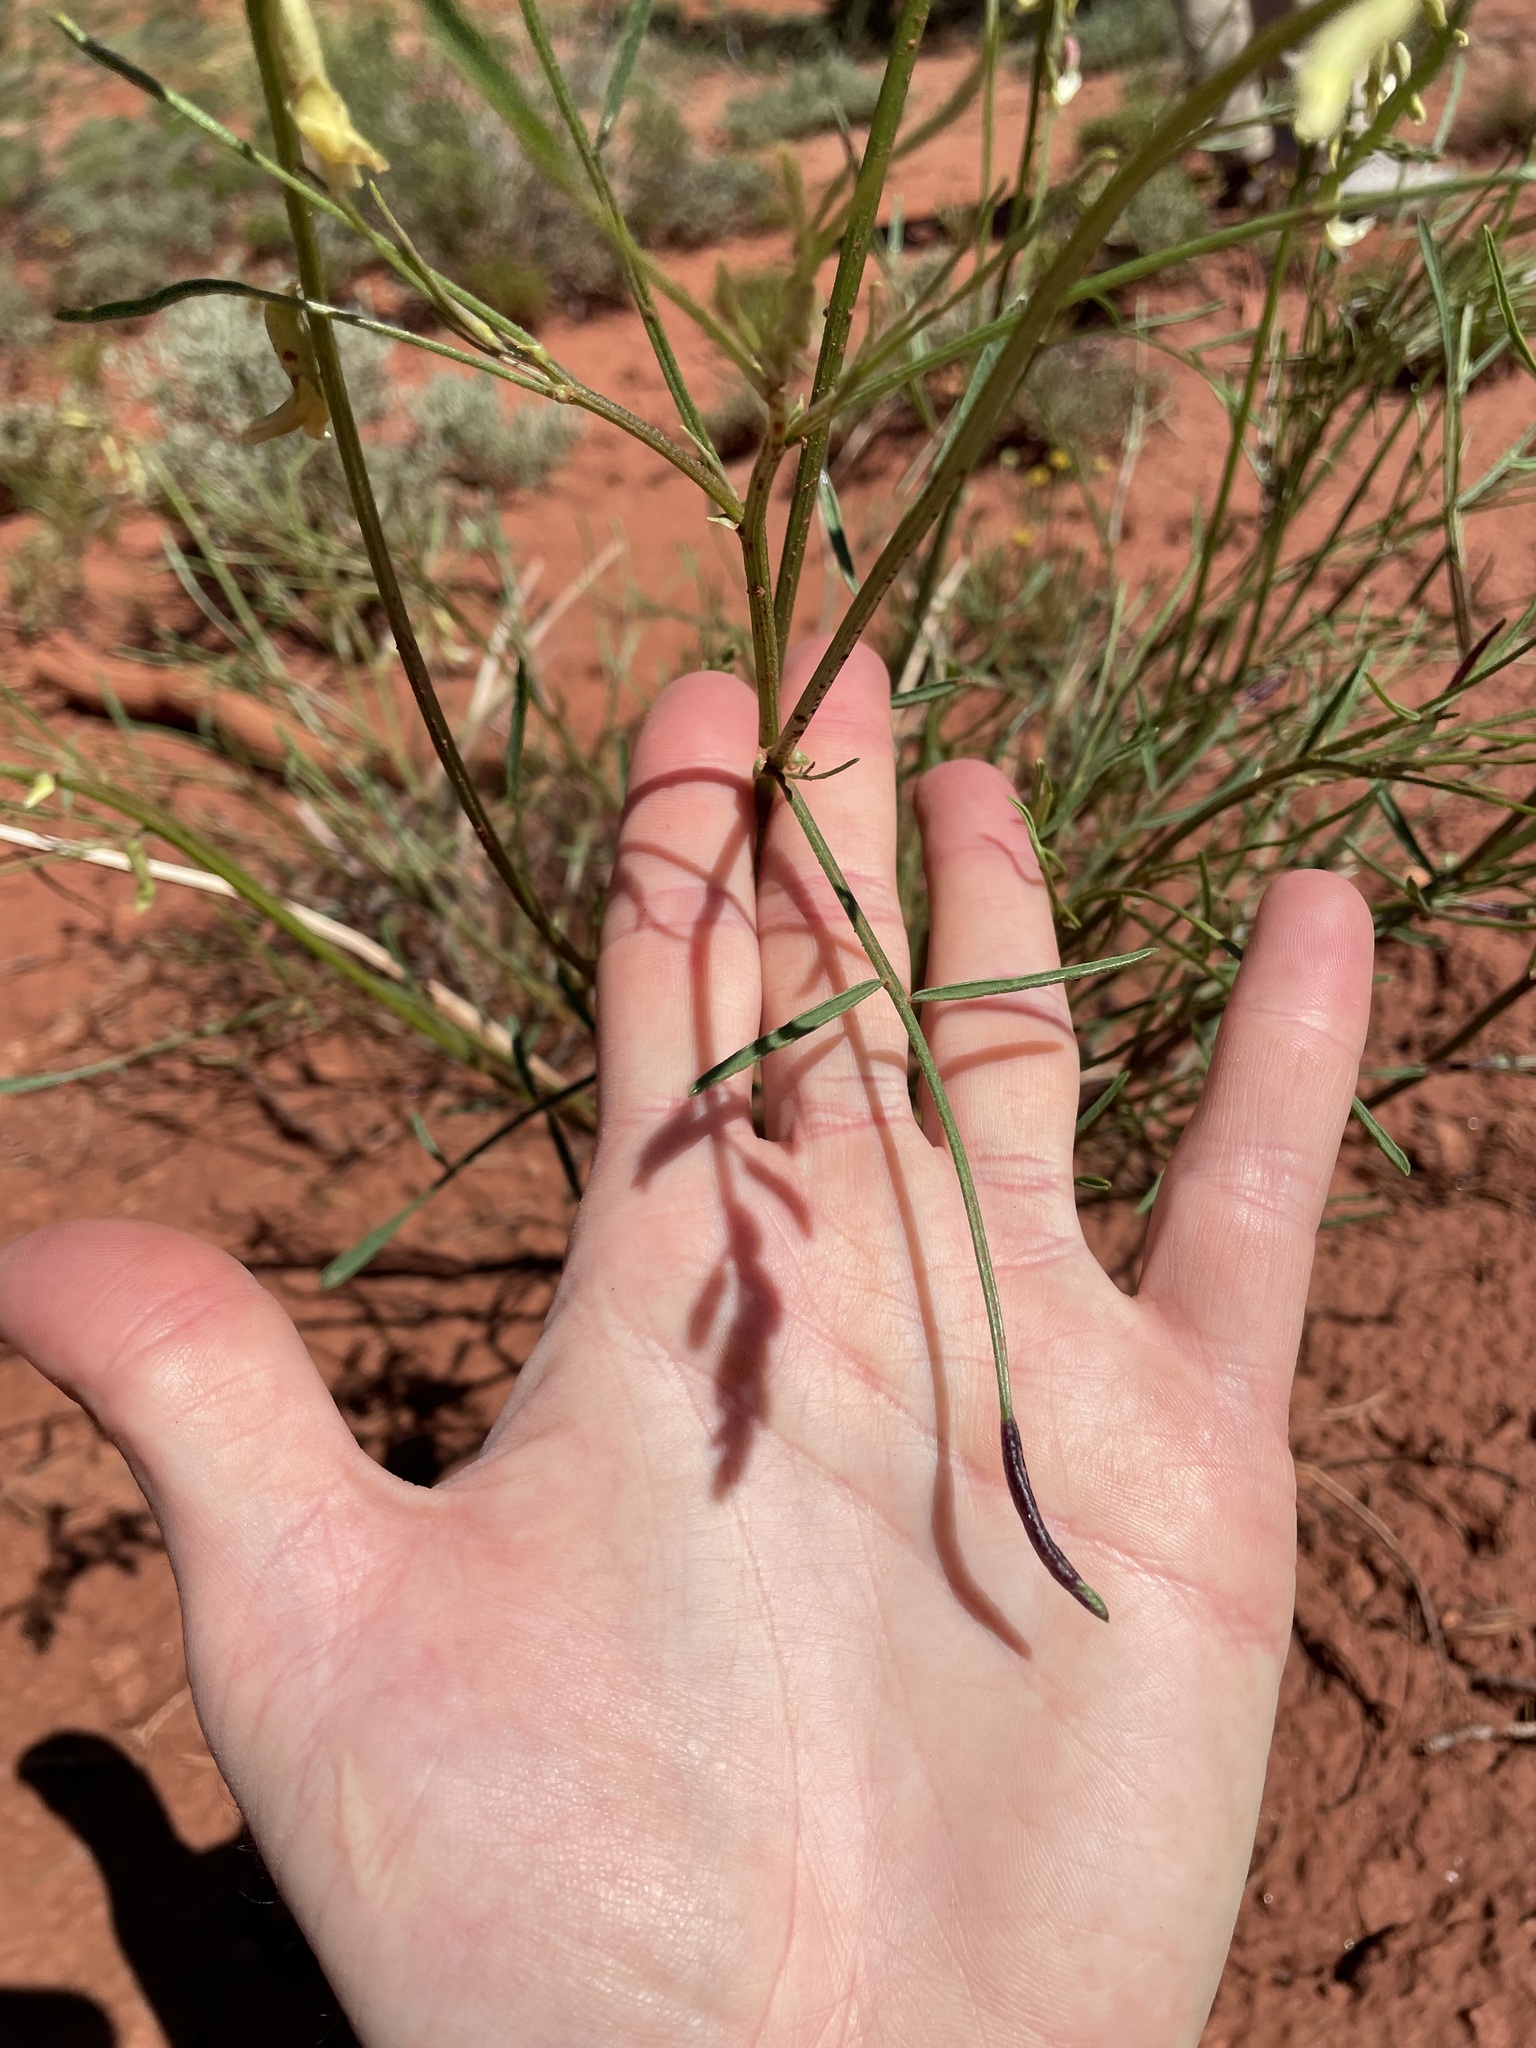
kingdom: Plantae
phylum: Tracheophyta
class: Magnoliopsida
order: Fabales
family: Fabaceae
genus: Astragalus
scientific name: Astragalus lonchocarpus
